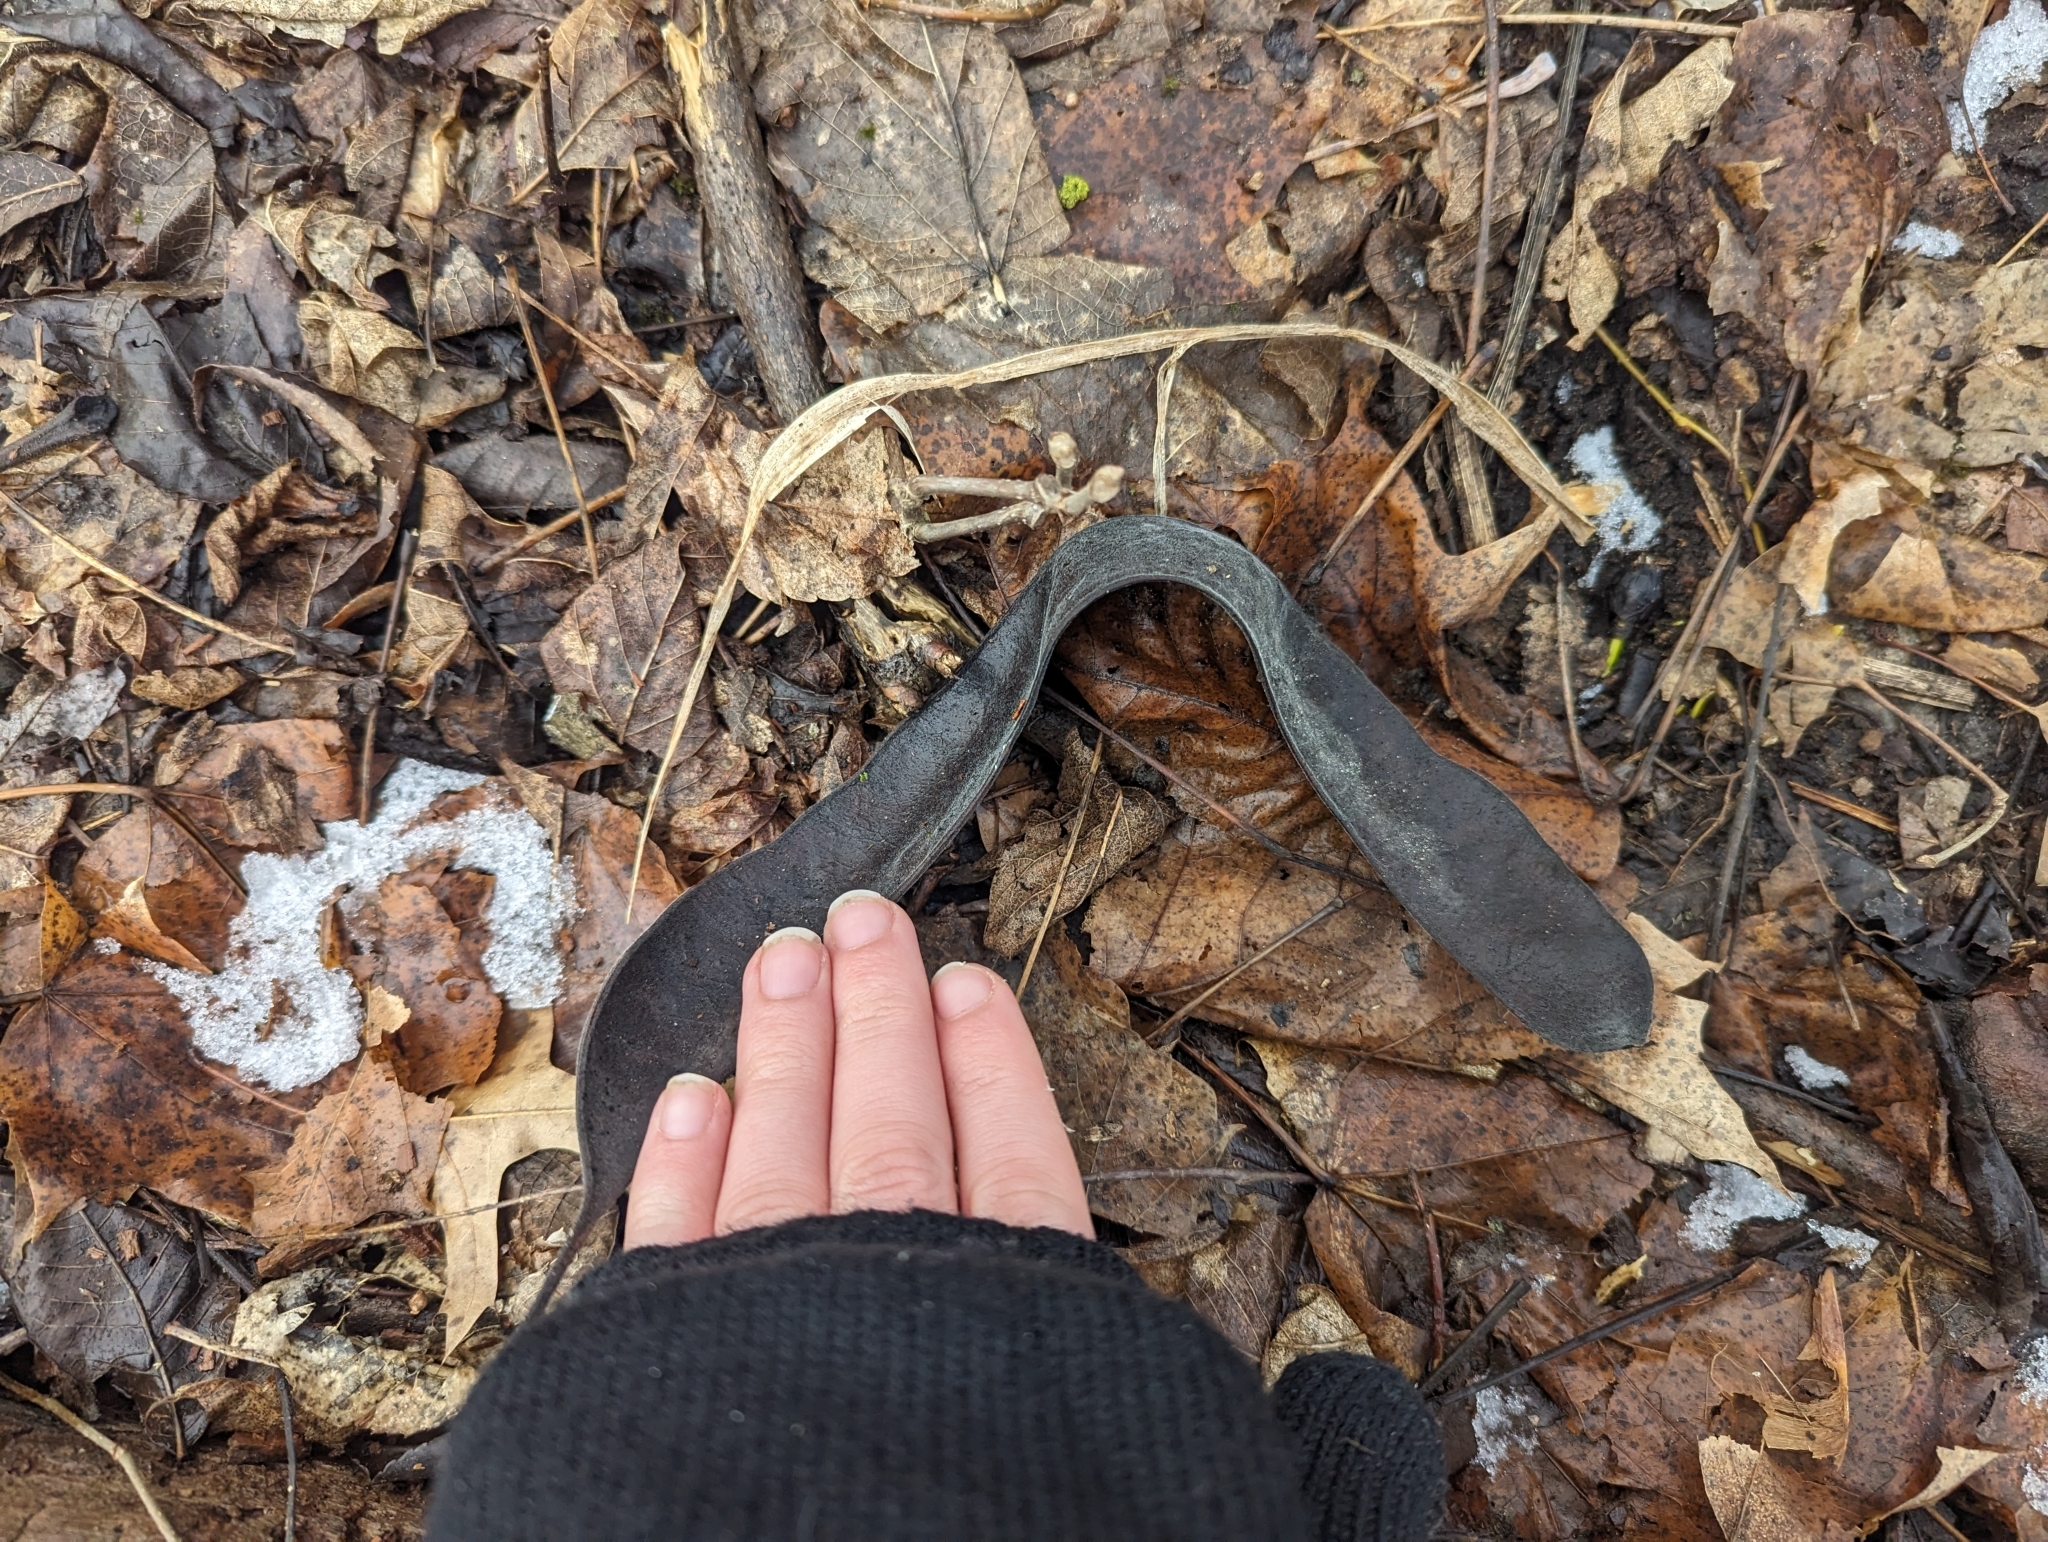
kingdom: Plantae
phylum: Tracheophyta
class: Magnoliopsida
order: Fabales
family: Fabaceae
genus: Gleditsia
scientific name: Gleditsia triacanthos
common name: Common honeylocust
